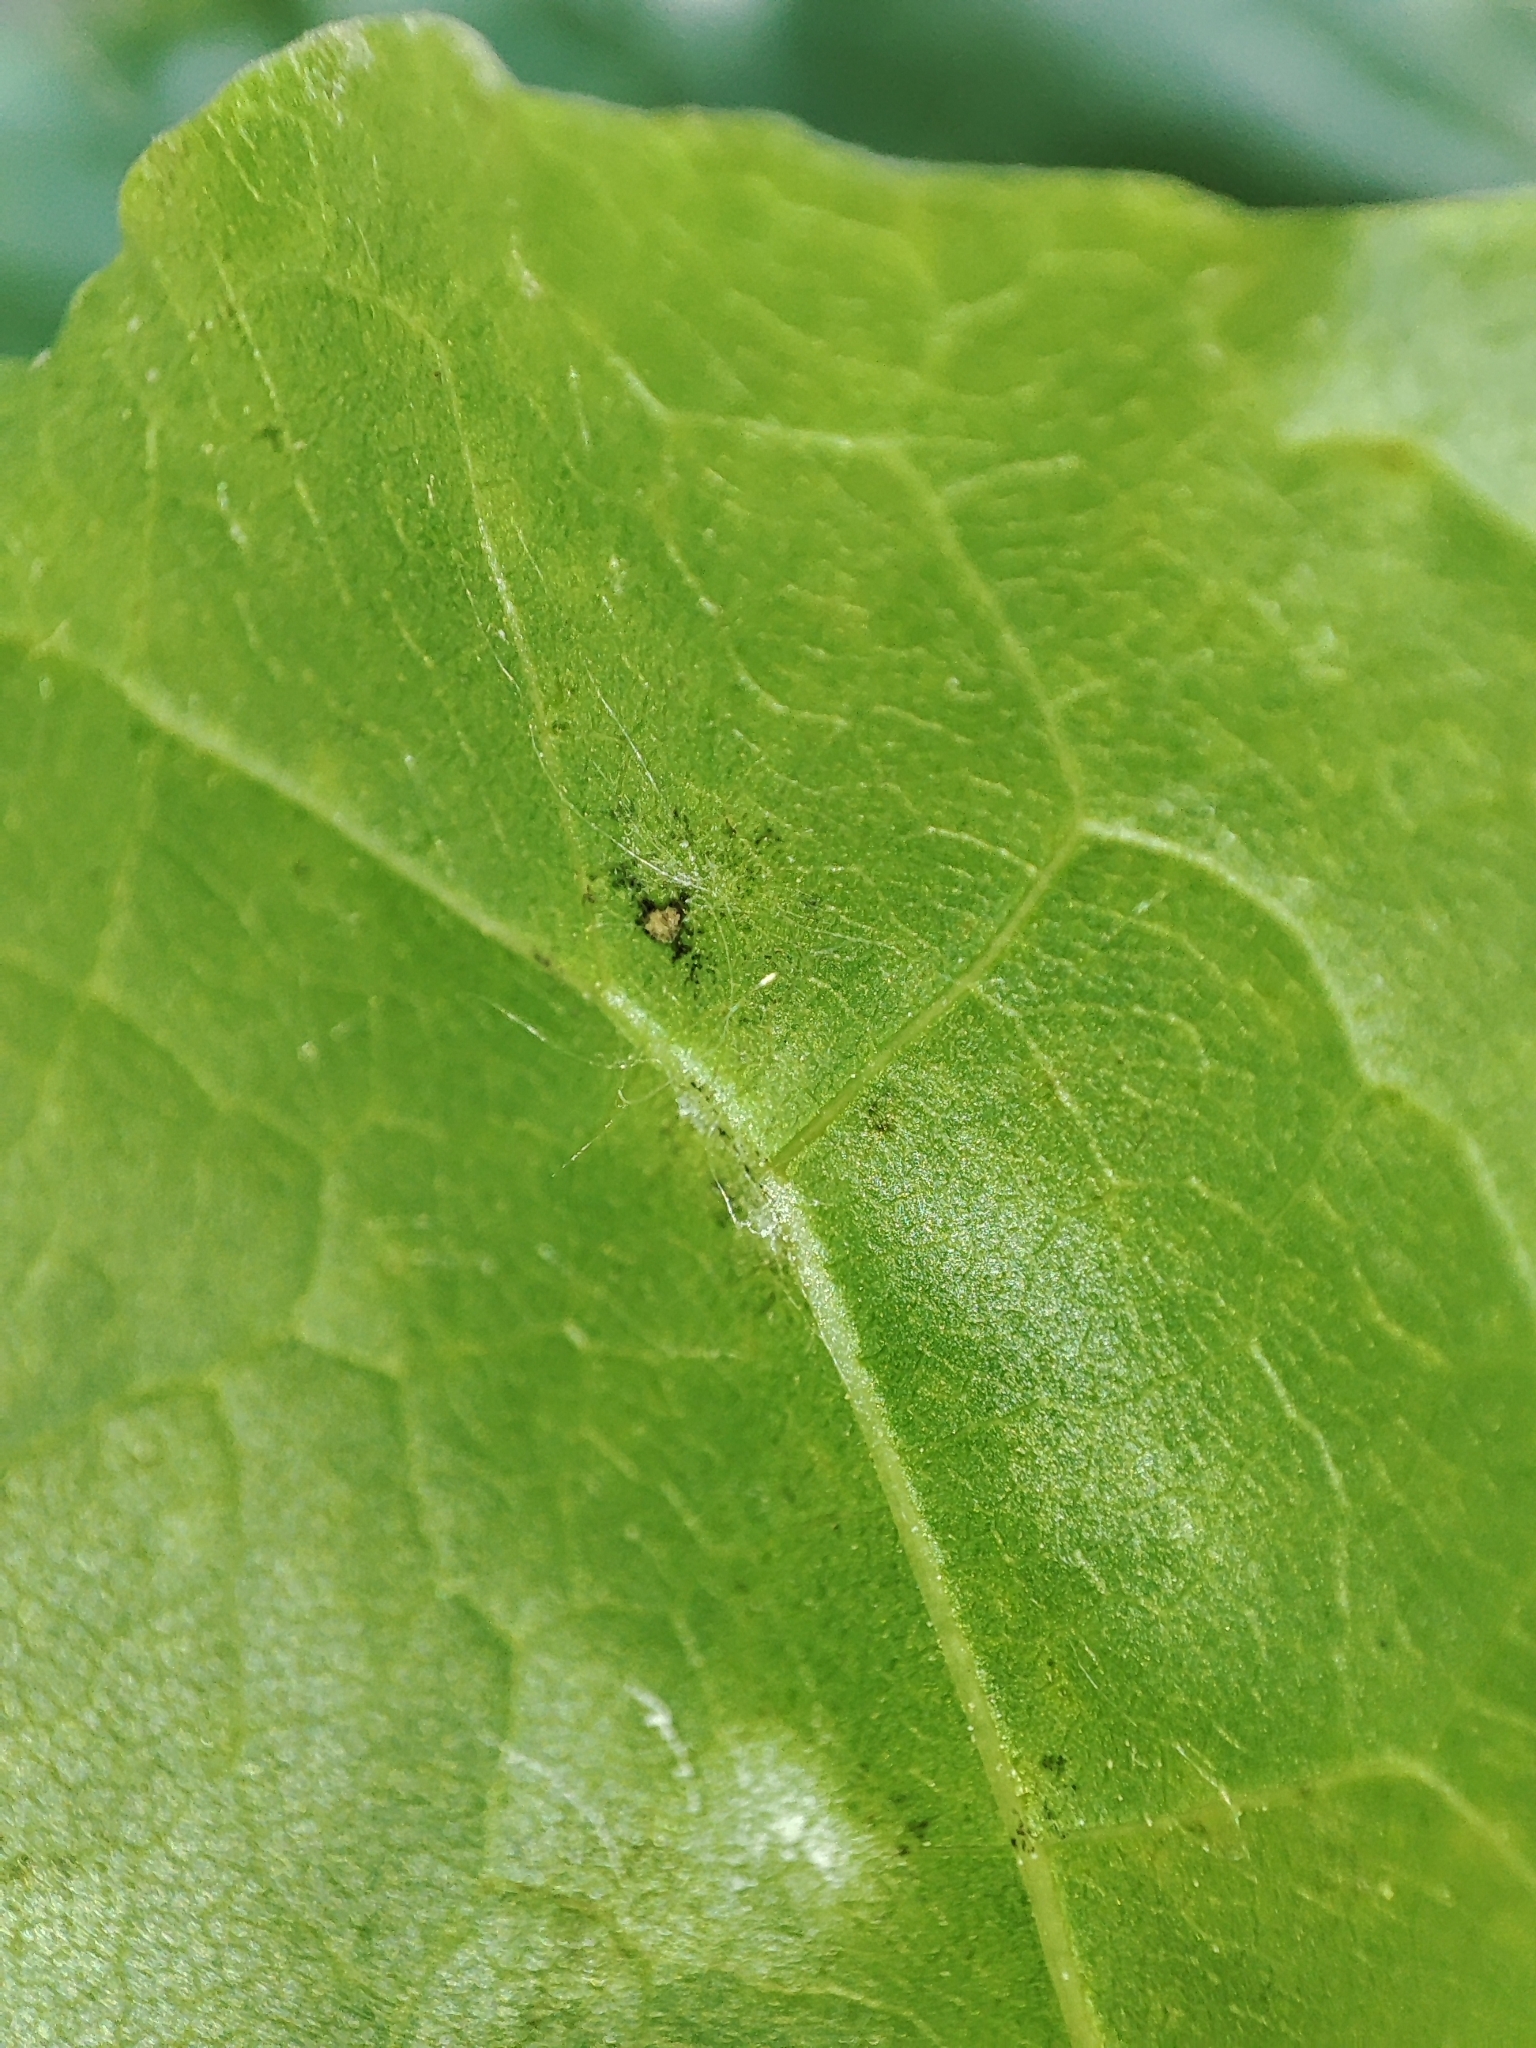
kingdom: Fungi
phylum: Ascomycota
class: Leotiomycetes
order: Helotiales
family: Erysiphaceae
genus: Sawadaea
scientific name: Sawadaea tulasnei
